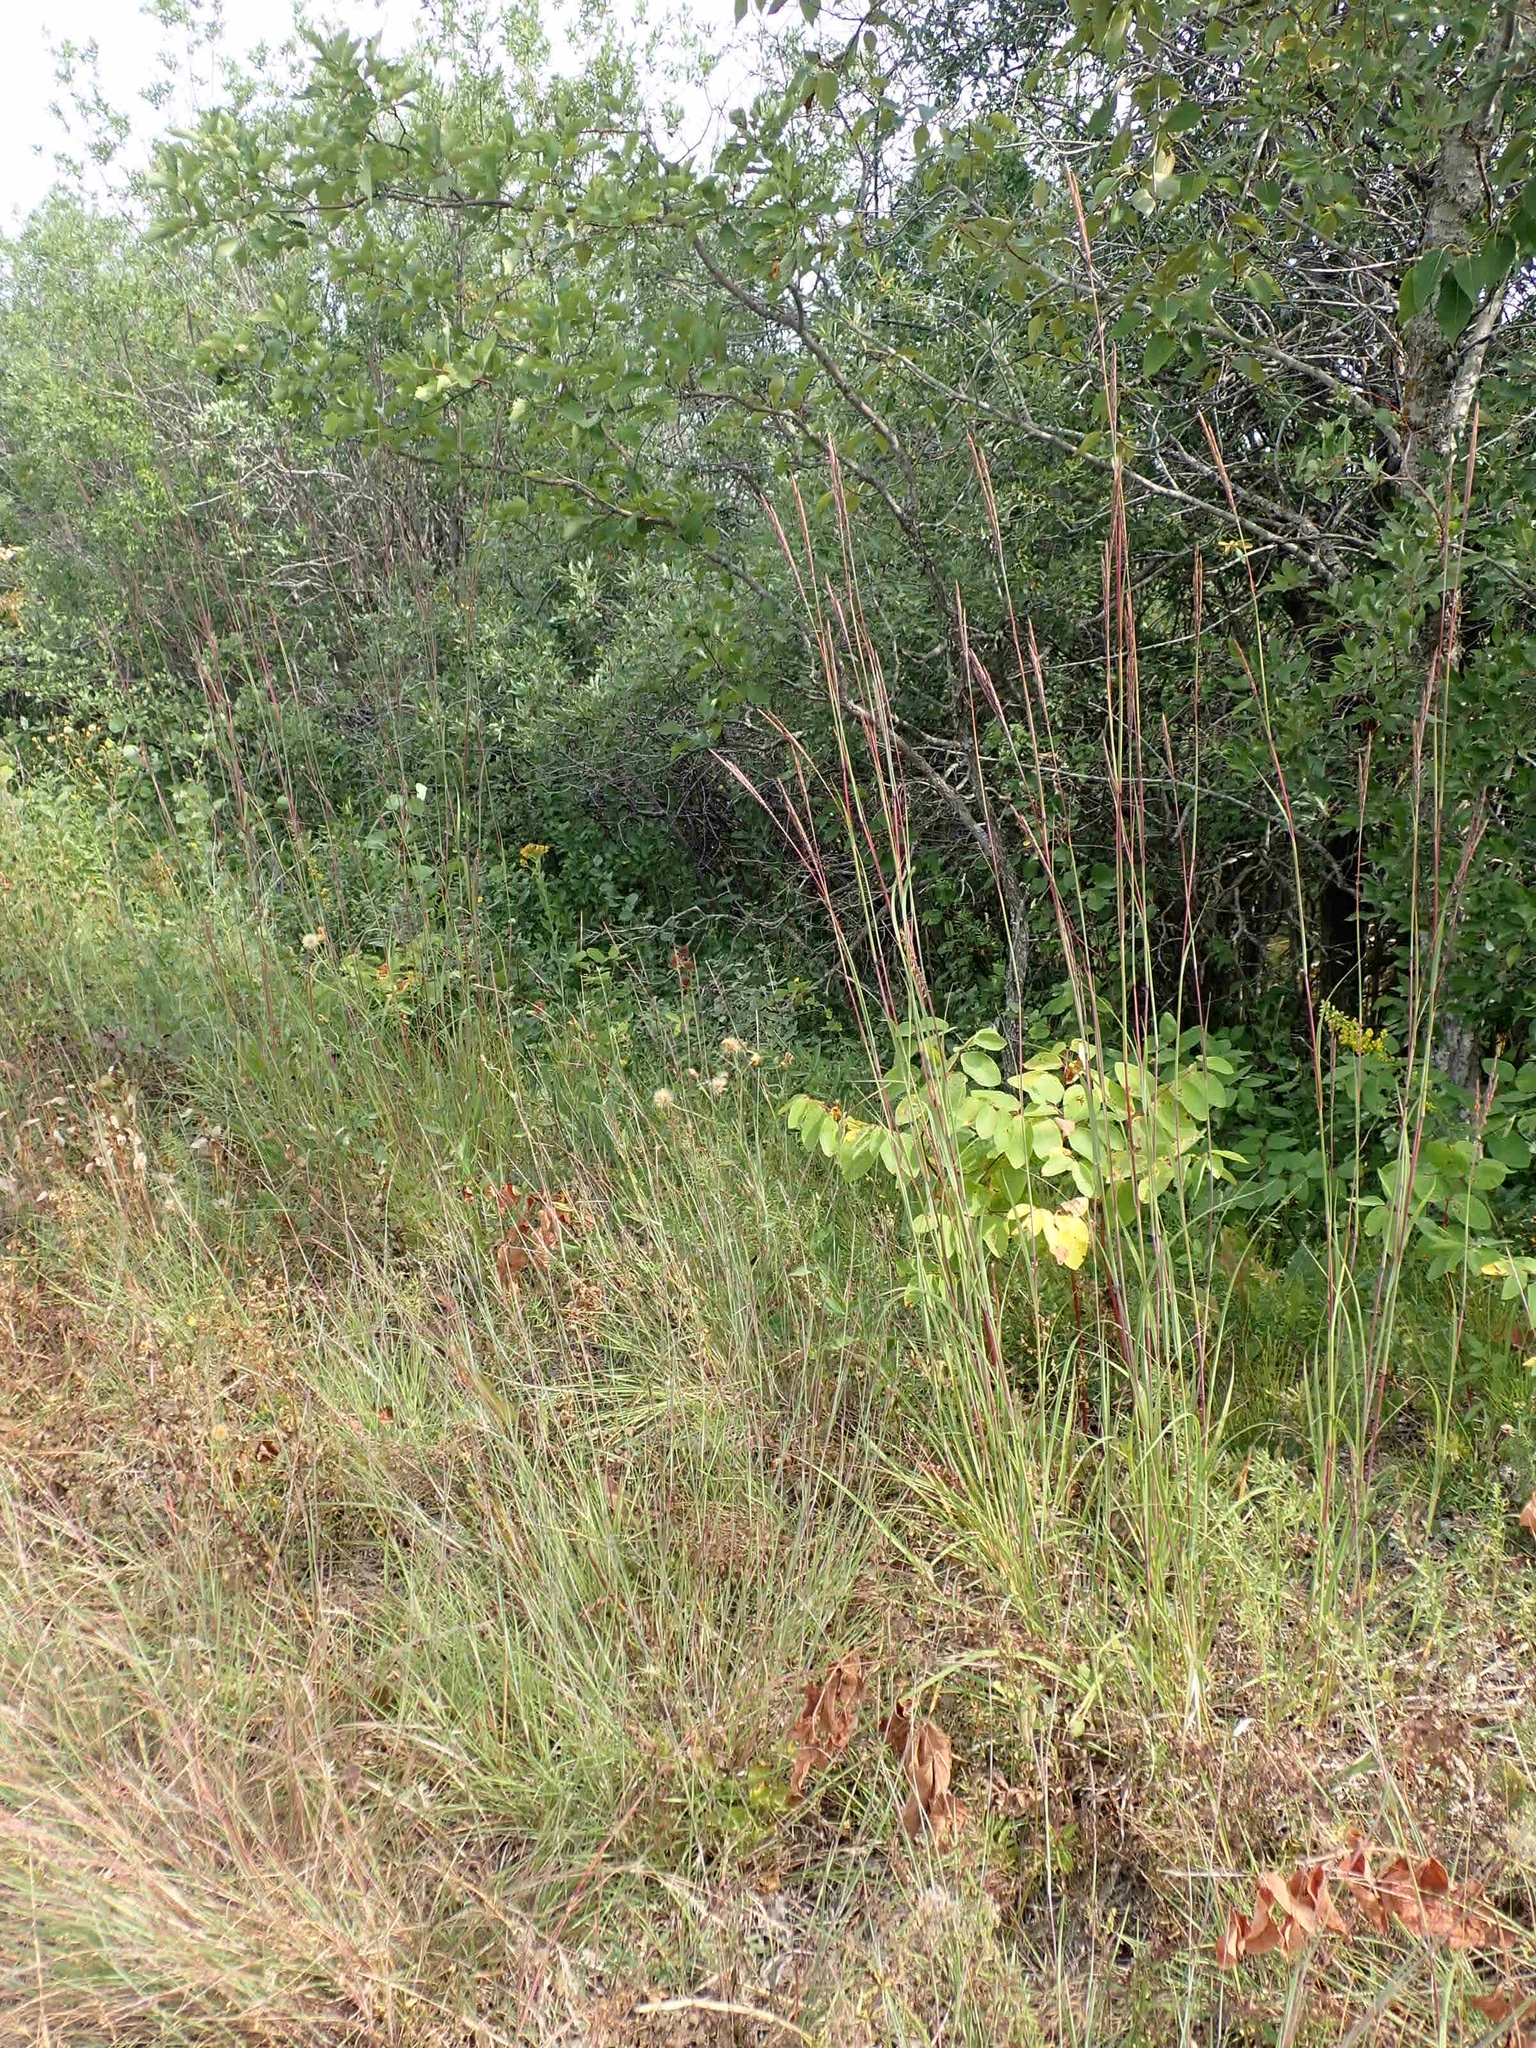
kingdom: Plantae
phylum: Tracheophyta
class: Liliopsida
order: Poales
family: Poaceae
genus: Andropogon
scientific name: Andropogon gerardi
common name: Big bluestem
